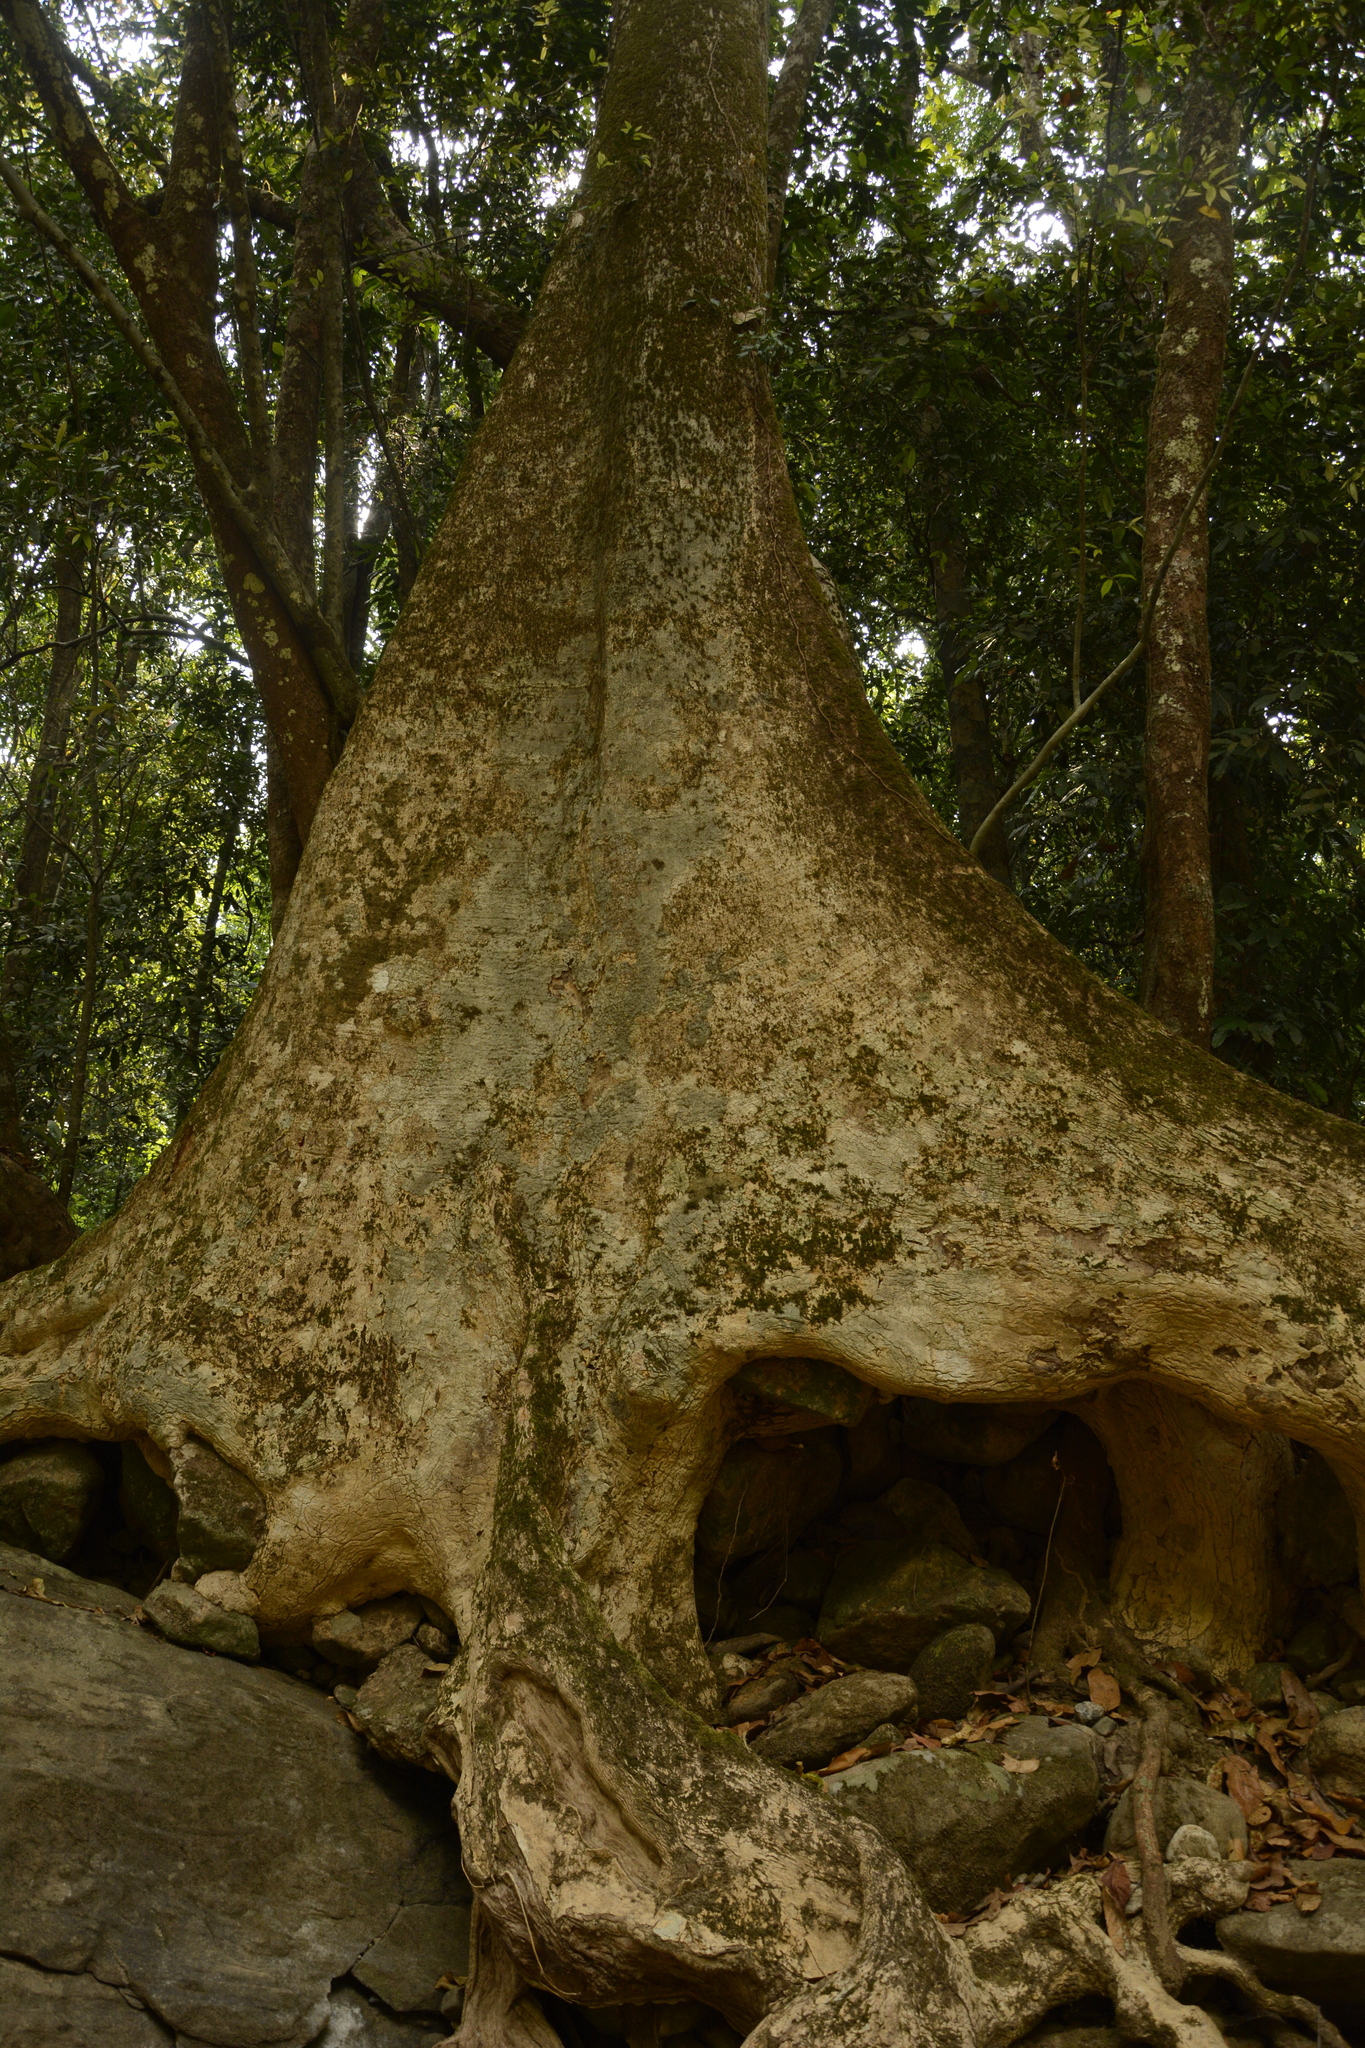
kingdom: Plantae
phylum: Tracheophyta
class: Magnoliopsida
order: Celastrales
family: Celastraceae
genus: Lophopetalum
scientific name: Lophopetalum wightianum
